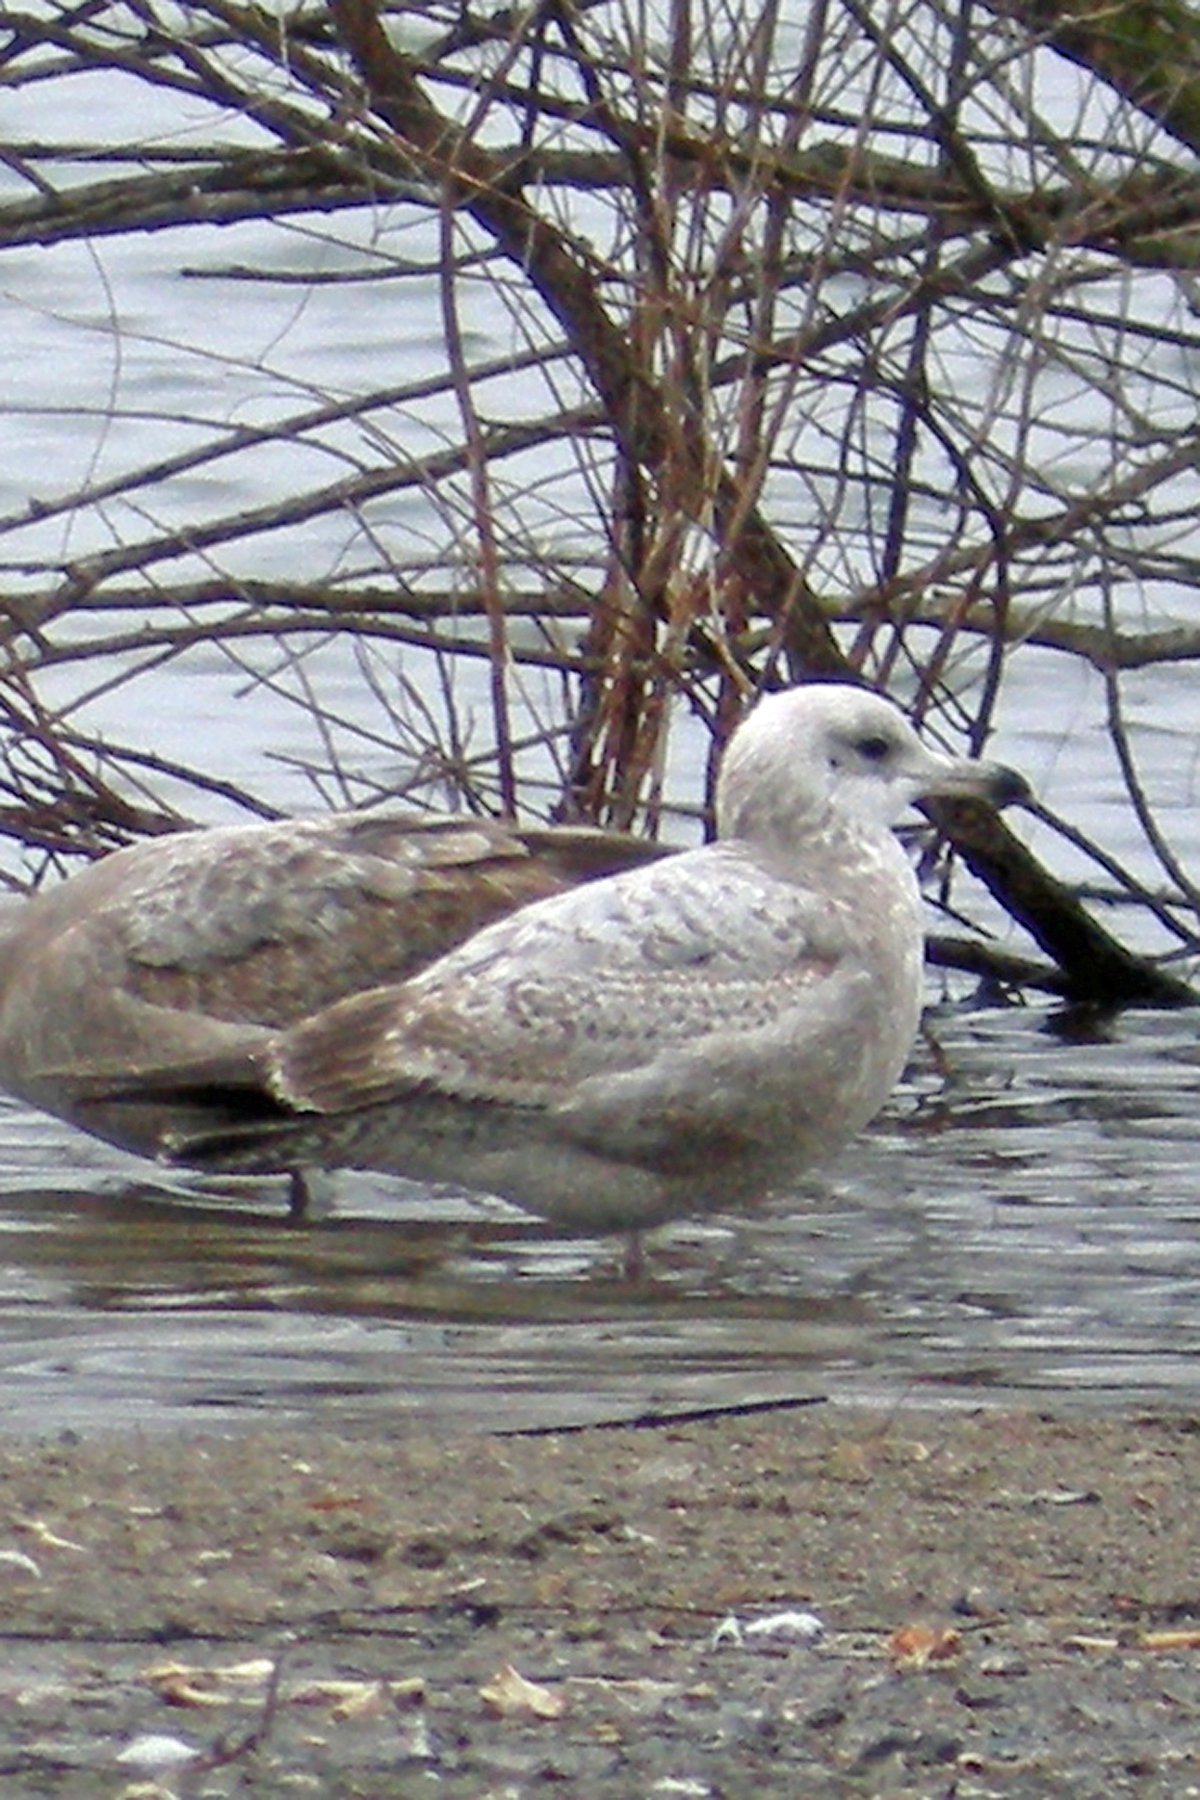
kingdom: Animalia
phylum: Chordata
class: Aves
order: Charadriiformes
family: Laridae
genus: Larus
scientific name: Larus argentatus
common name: Herring gull
